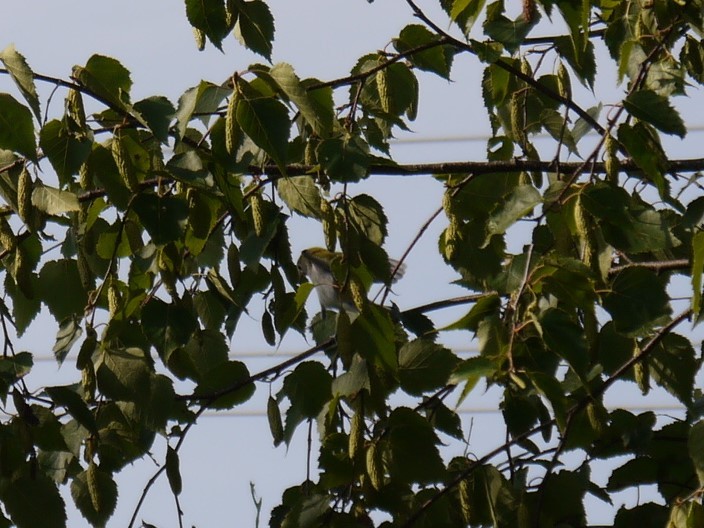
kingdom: Animalia
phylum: Chordata
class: Aves
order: Passeriformes
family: Parulidae
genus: Setophaga
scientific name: Setophaga pensylvanica
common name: Chestnut-sided warbler
